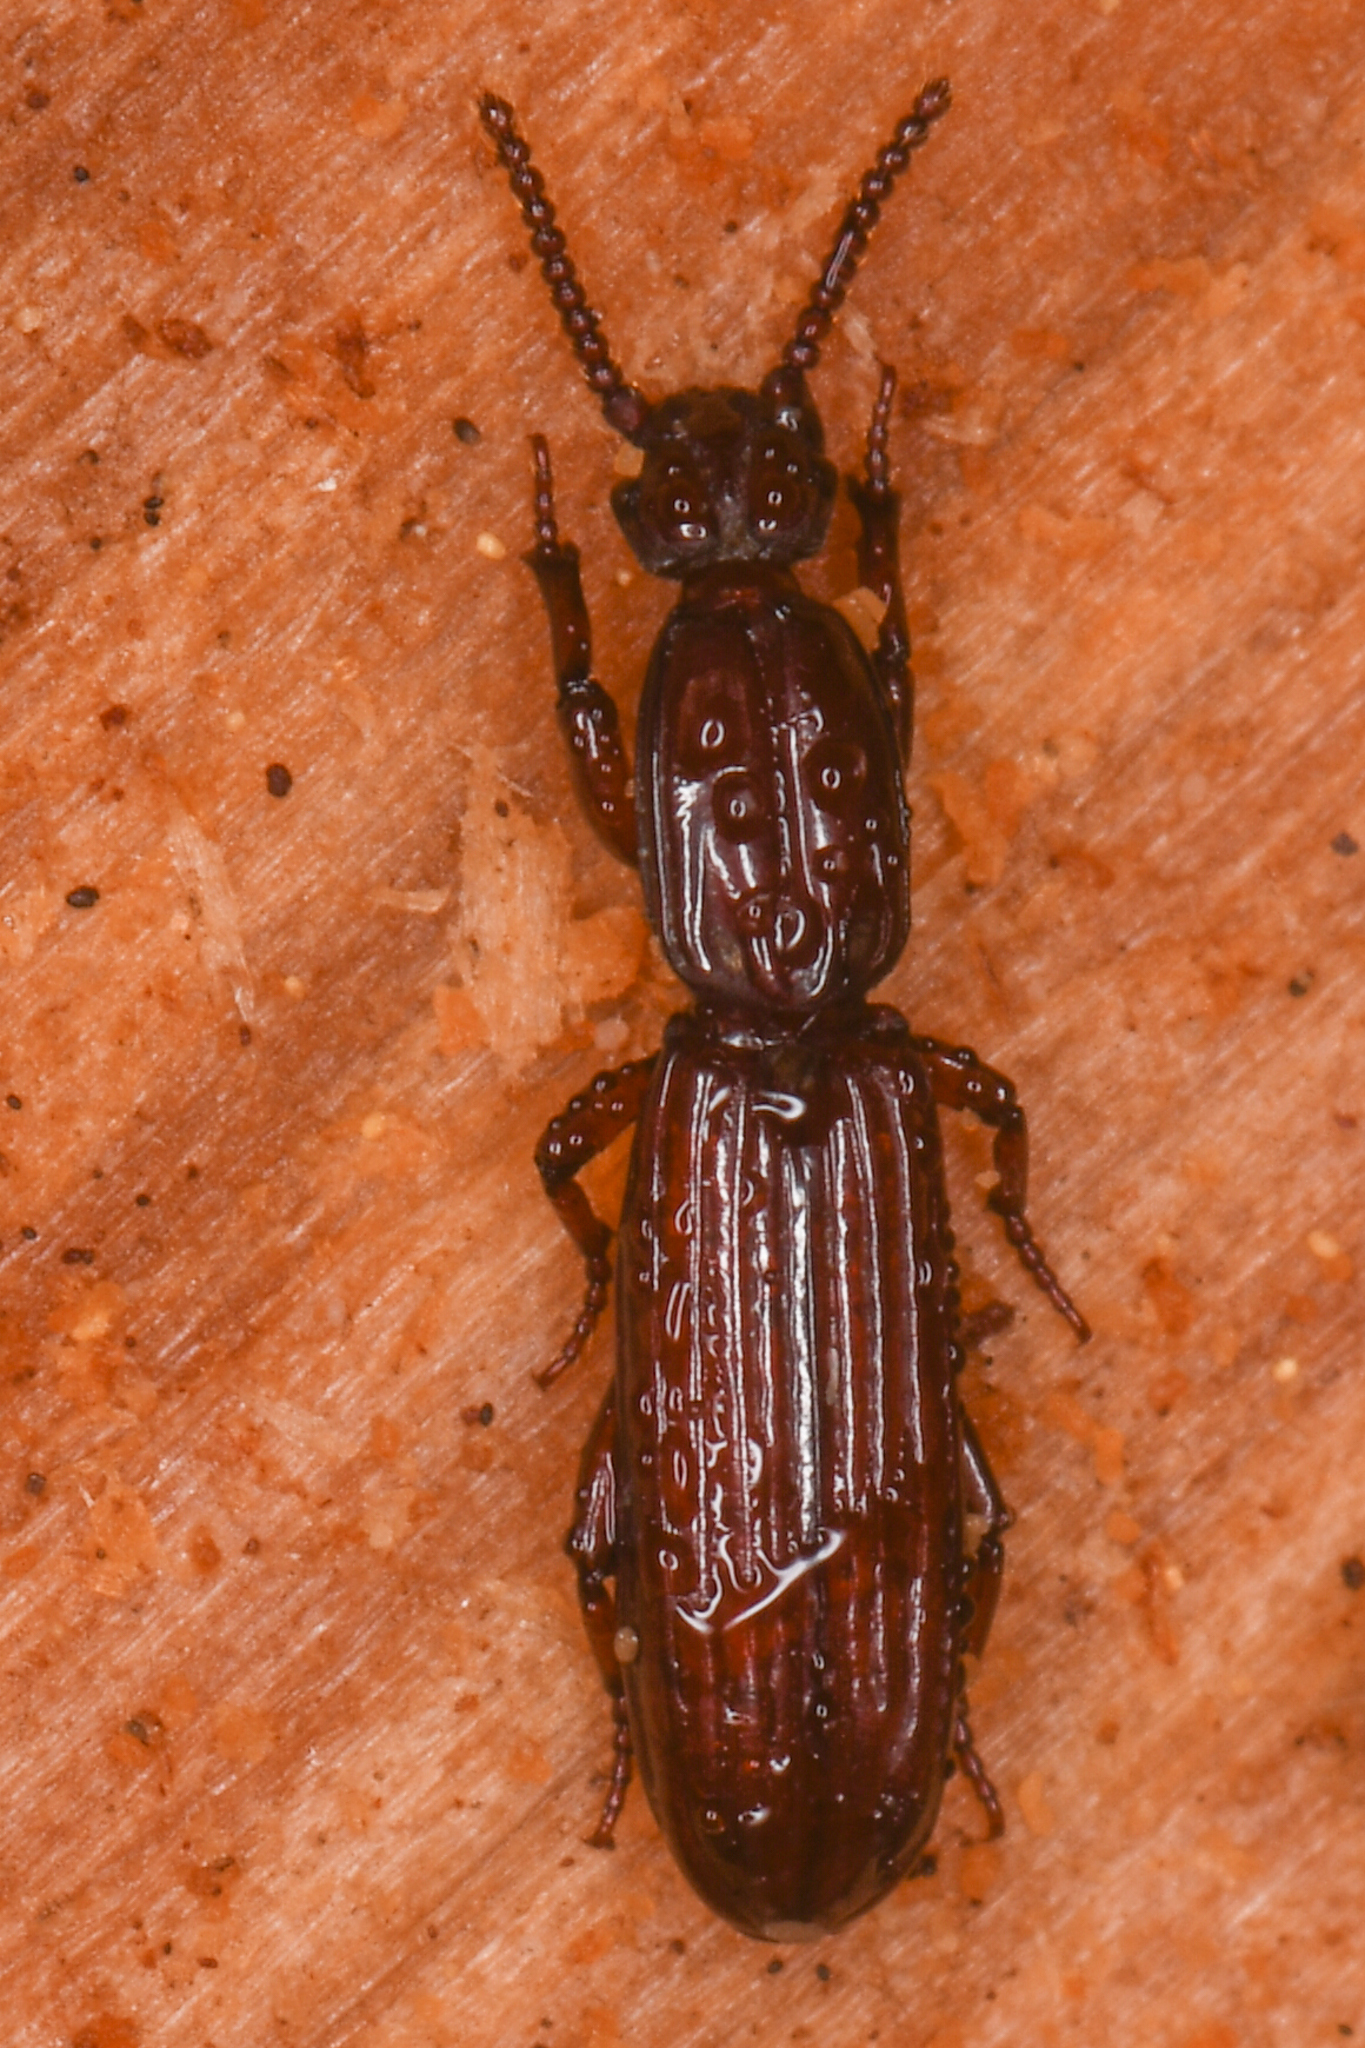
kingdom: Animalia
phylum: Arthropoda
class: Insecta
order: Coleoptera
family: Carabidae
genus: Clinidium
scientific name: Clinidium calcaratum
